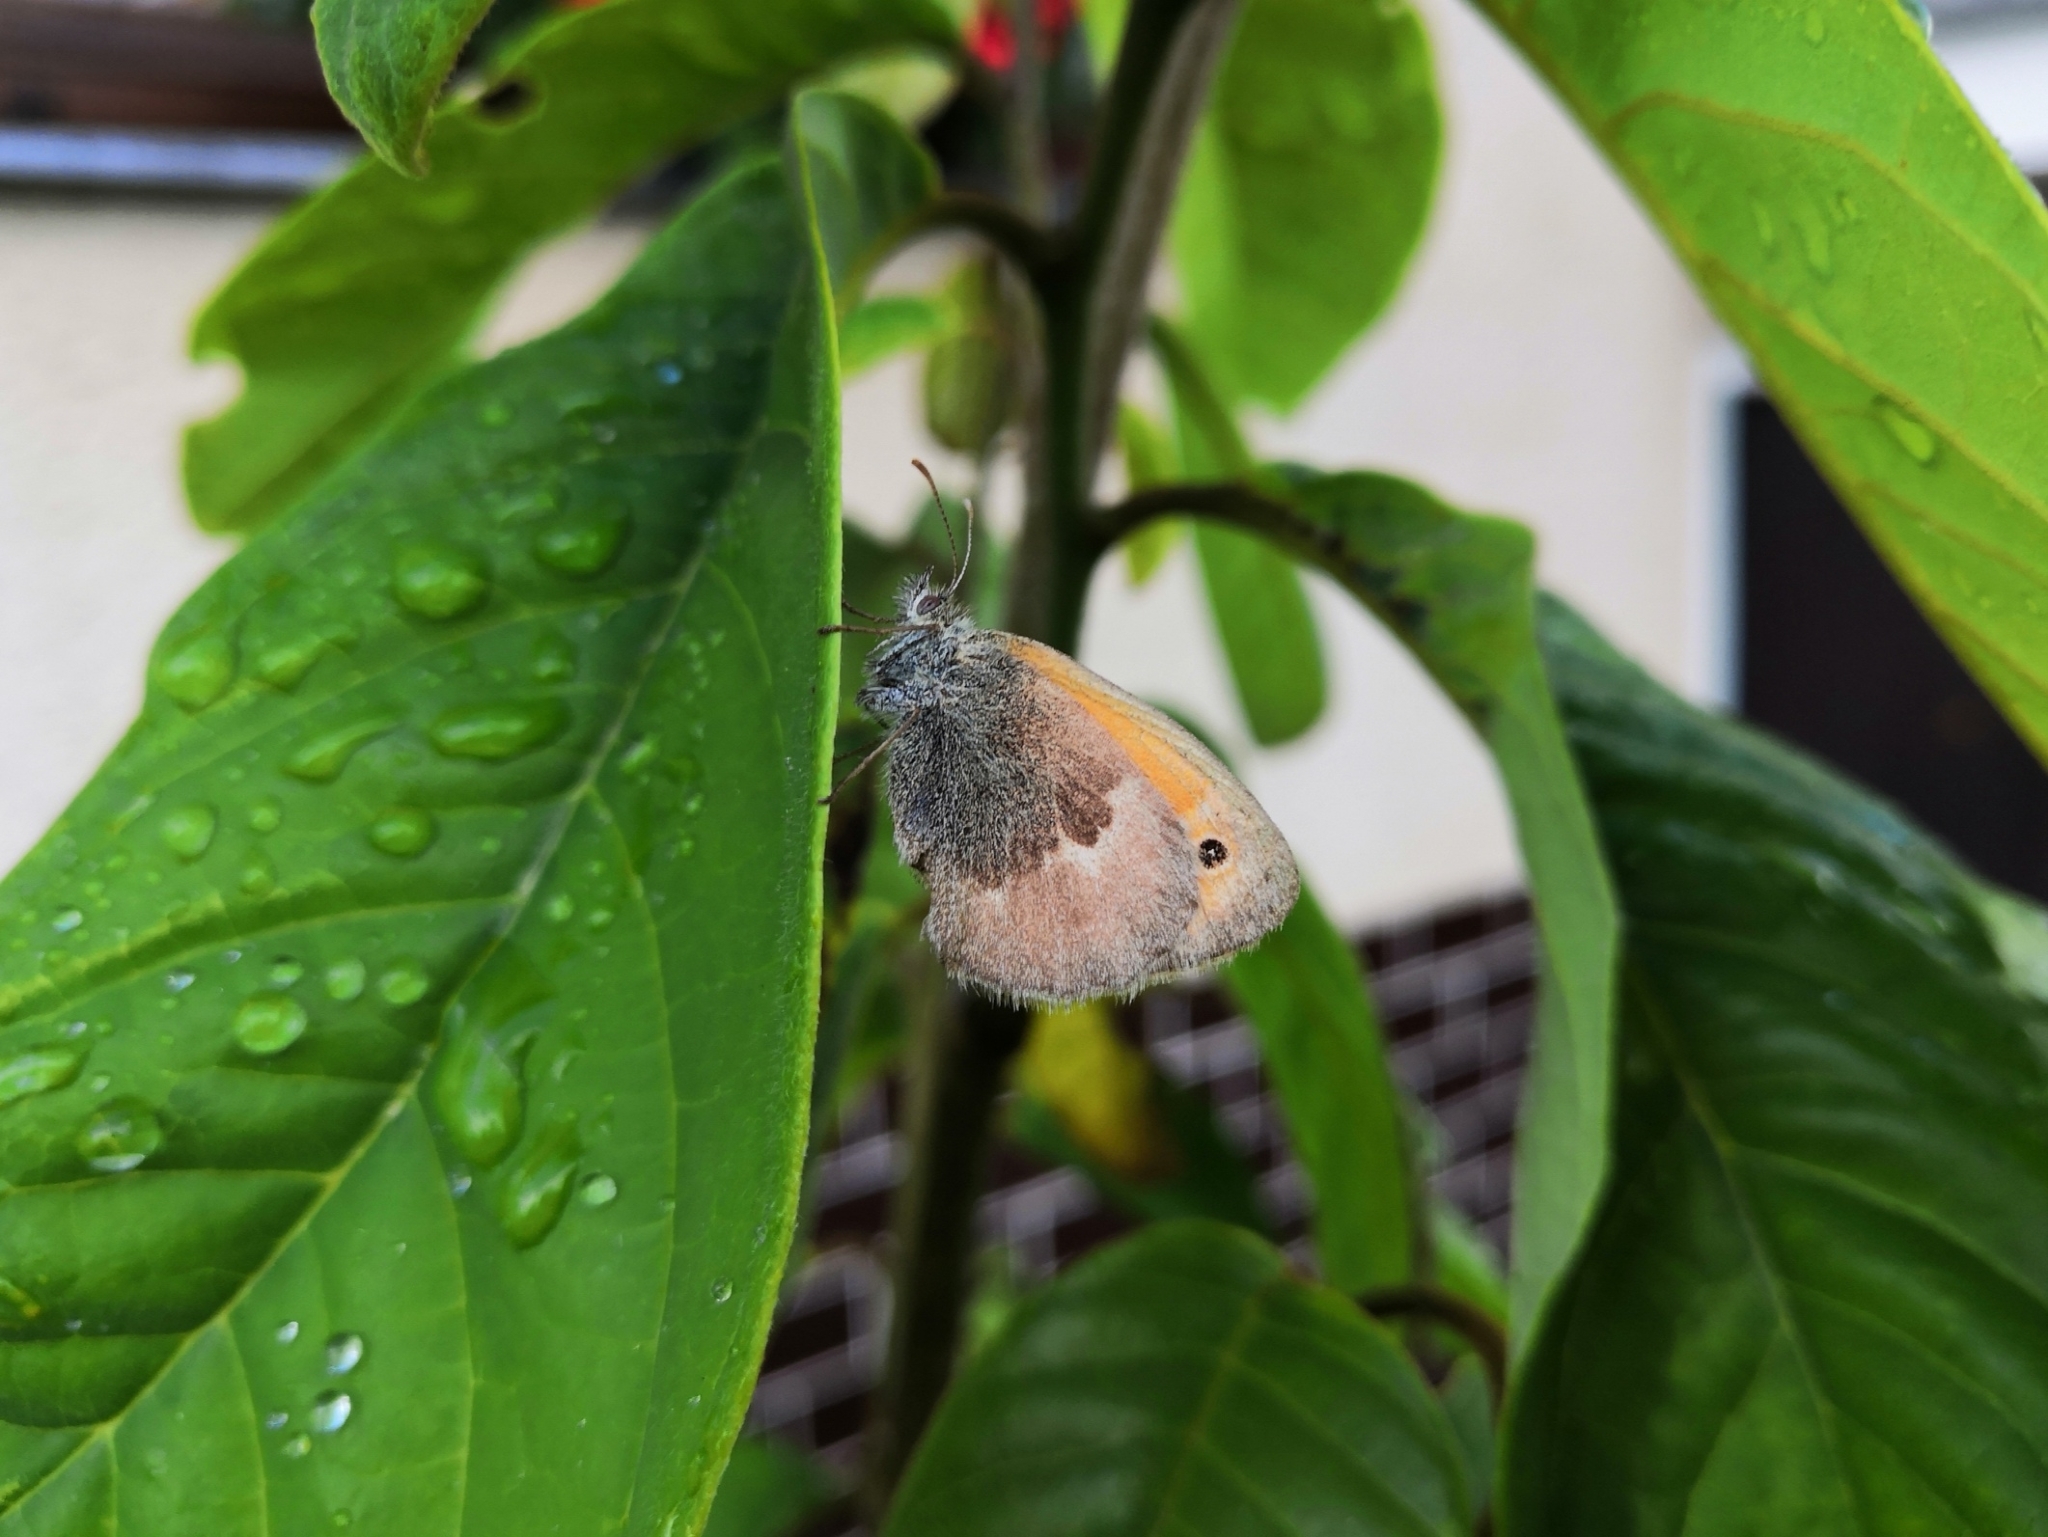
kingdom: Animalia
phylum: Arthropoda
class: Insecta
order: Lepidoptera
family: Nymphalidae
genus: Coenonympha
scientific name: Coenonympha pamphilus
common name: Small heath
